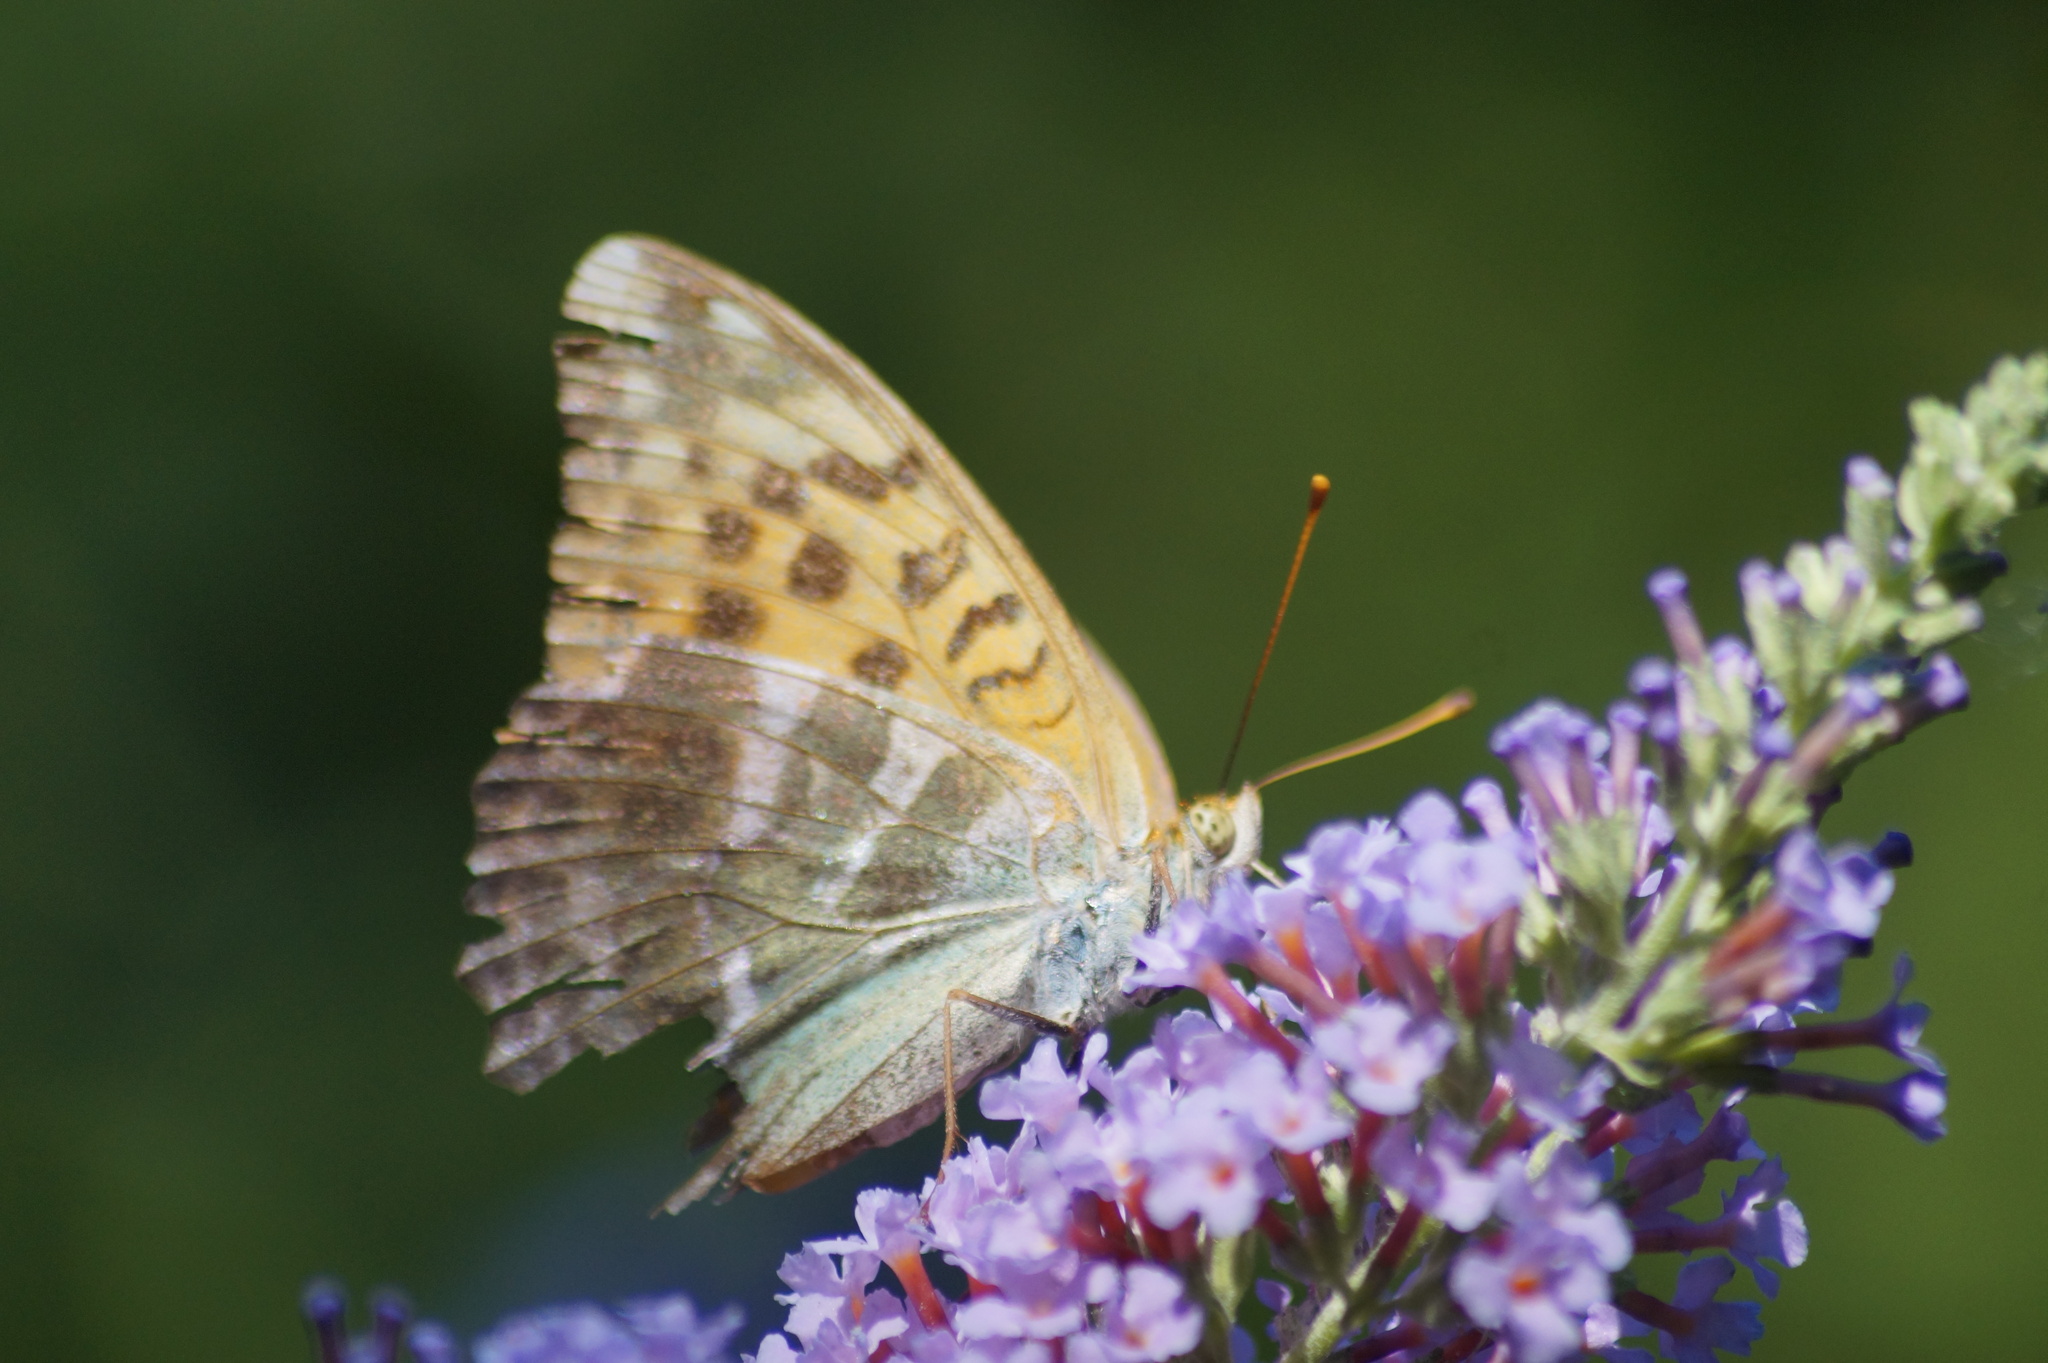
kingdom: Animalia
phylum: Arthropoda
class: Insecta
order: Lepidoptera
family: Nymphalidae
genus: Argynnis
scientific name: Argynnis paphia
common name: Silver-washed fritillary
